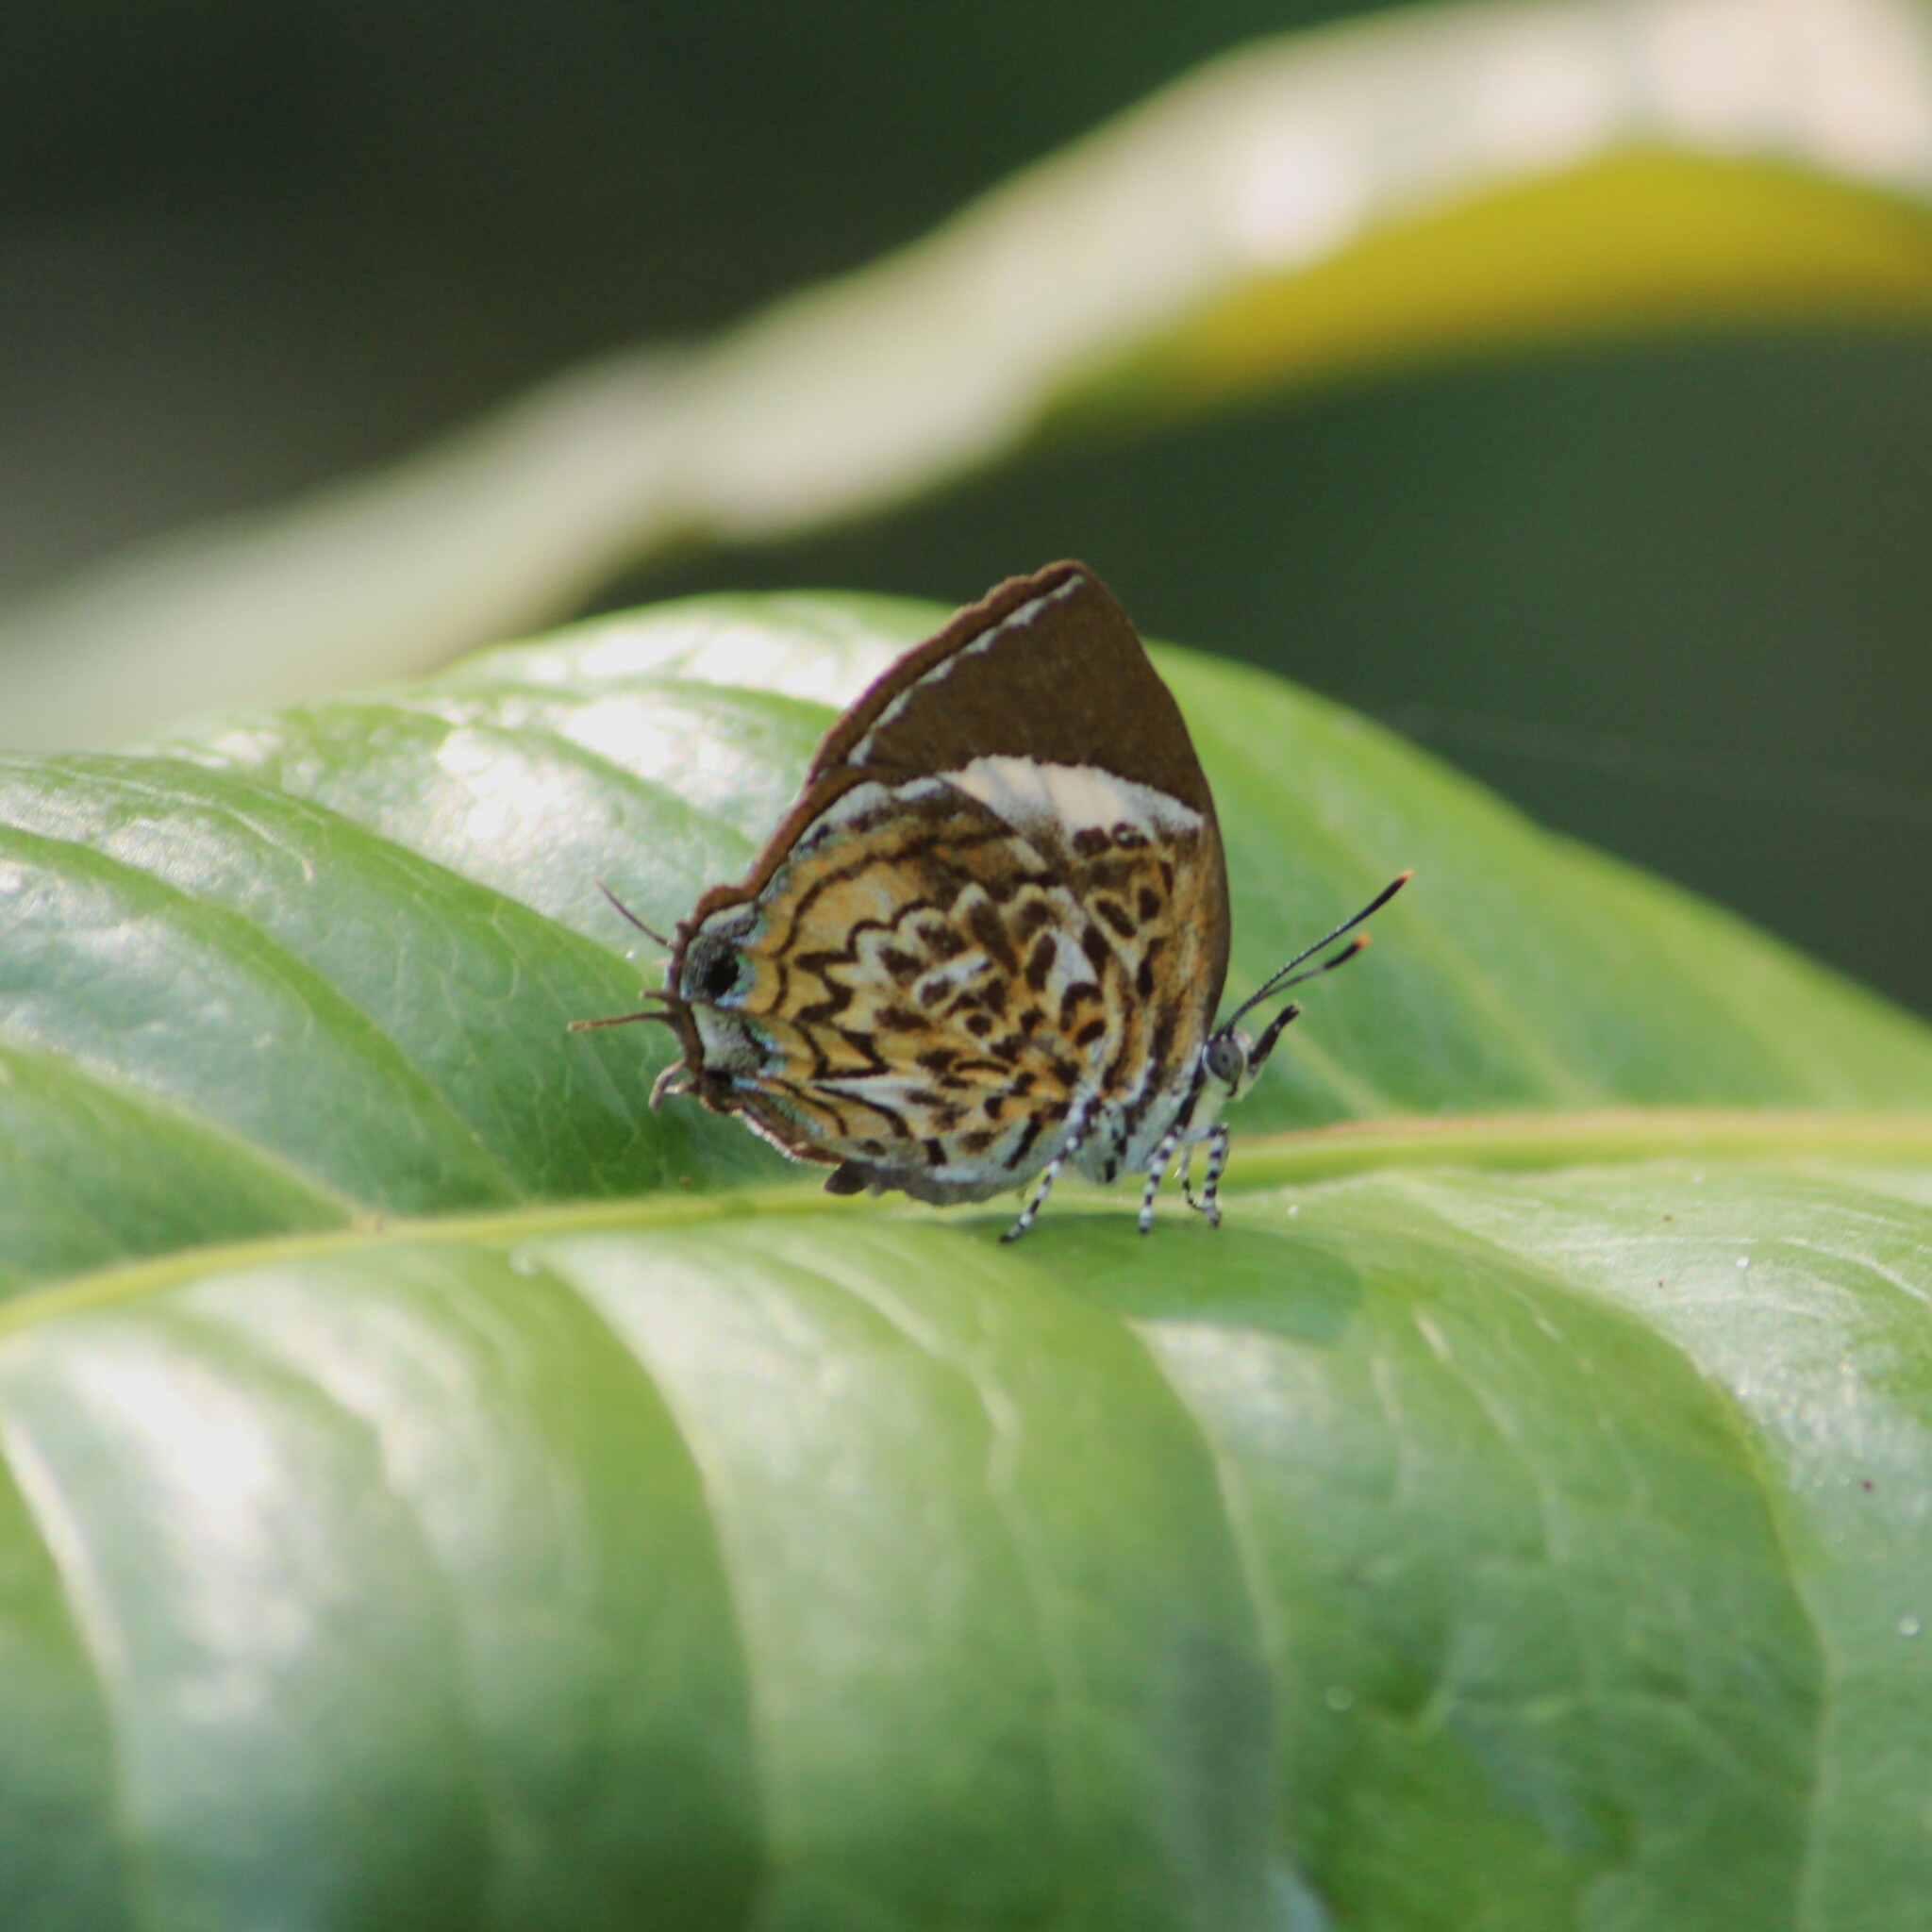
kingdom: Animalia
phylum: Arthropoda
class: Insecta
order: Lepidoptera
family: Lycaenidae
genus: Rathinda
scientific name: Rathinda amor
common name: Monkey puzzle
